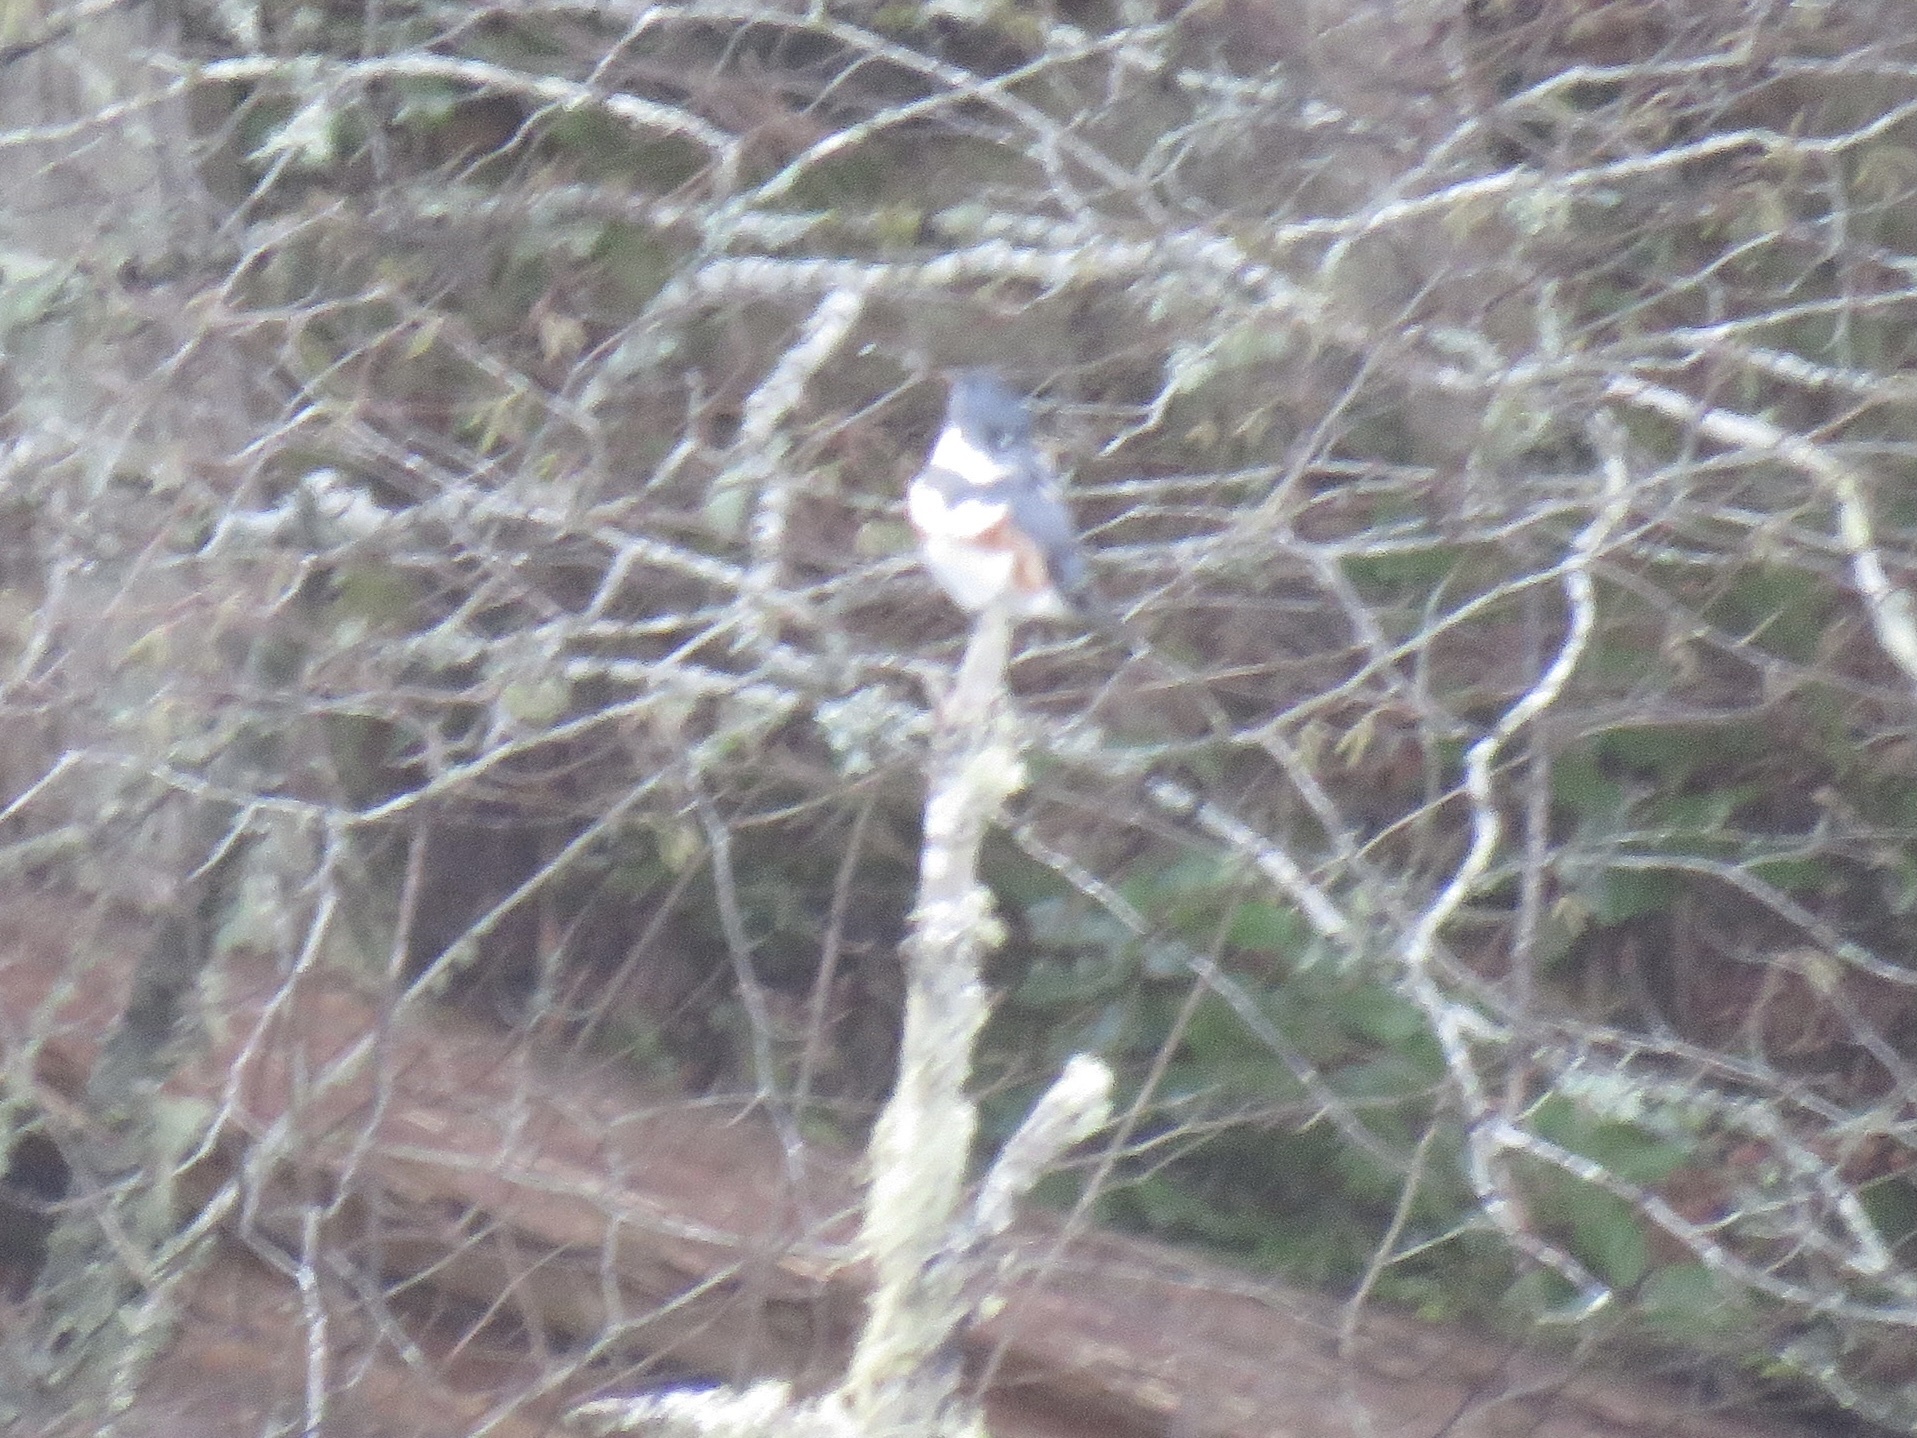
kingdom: Animalia
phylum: Chordata
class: Aves
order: Coraciiformes
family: Alcedinidae
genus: Megaceryle
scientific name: Megaceryle alcyon
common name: Belted kingfisher
